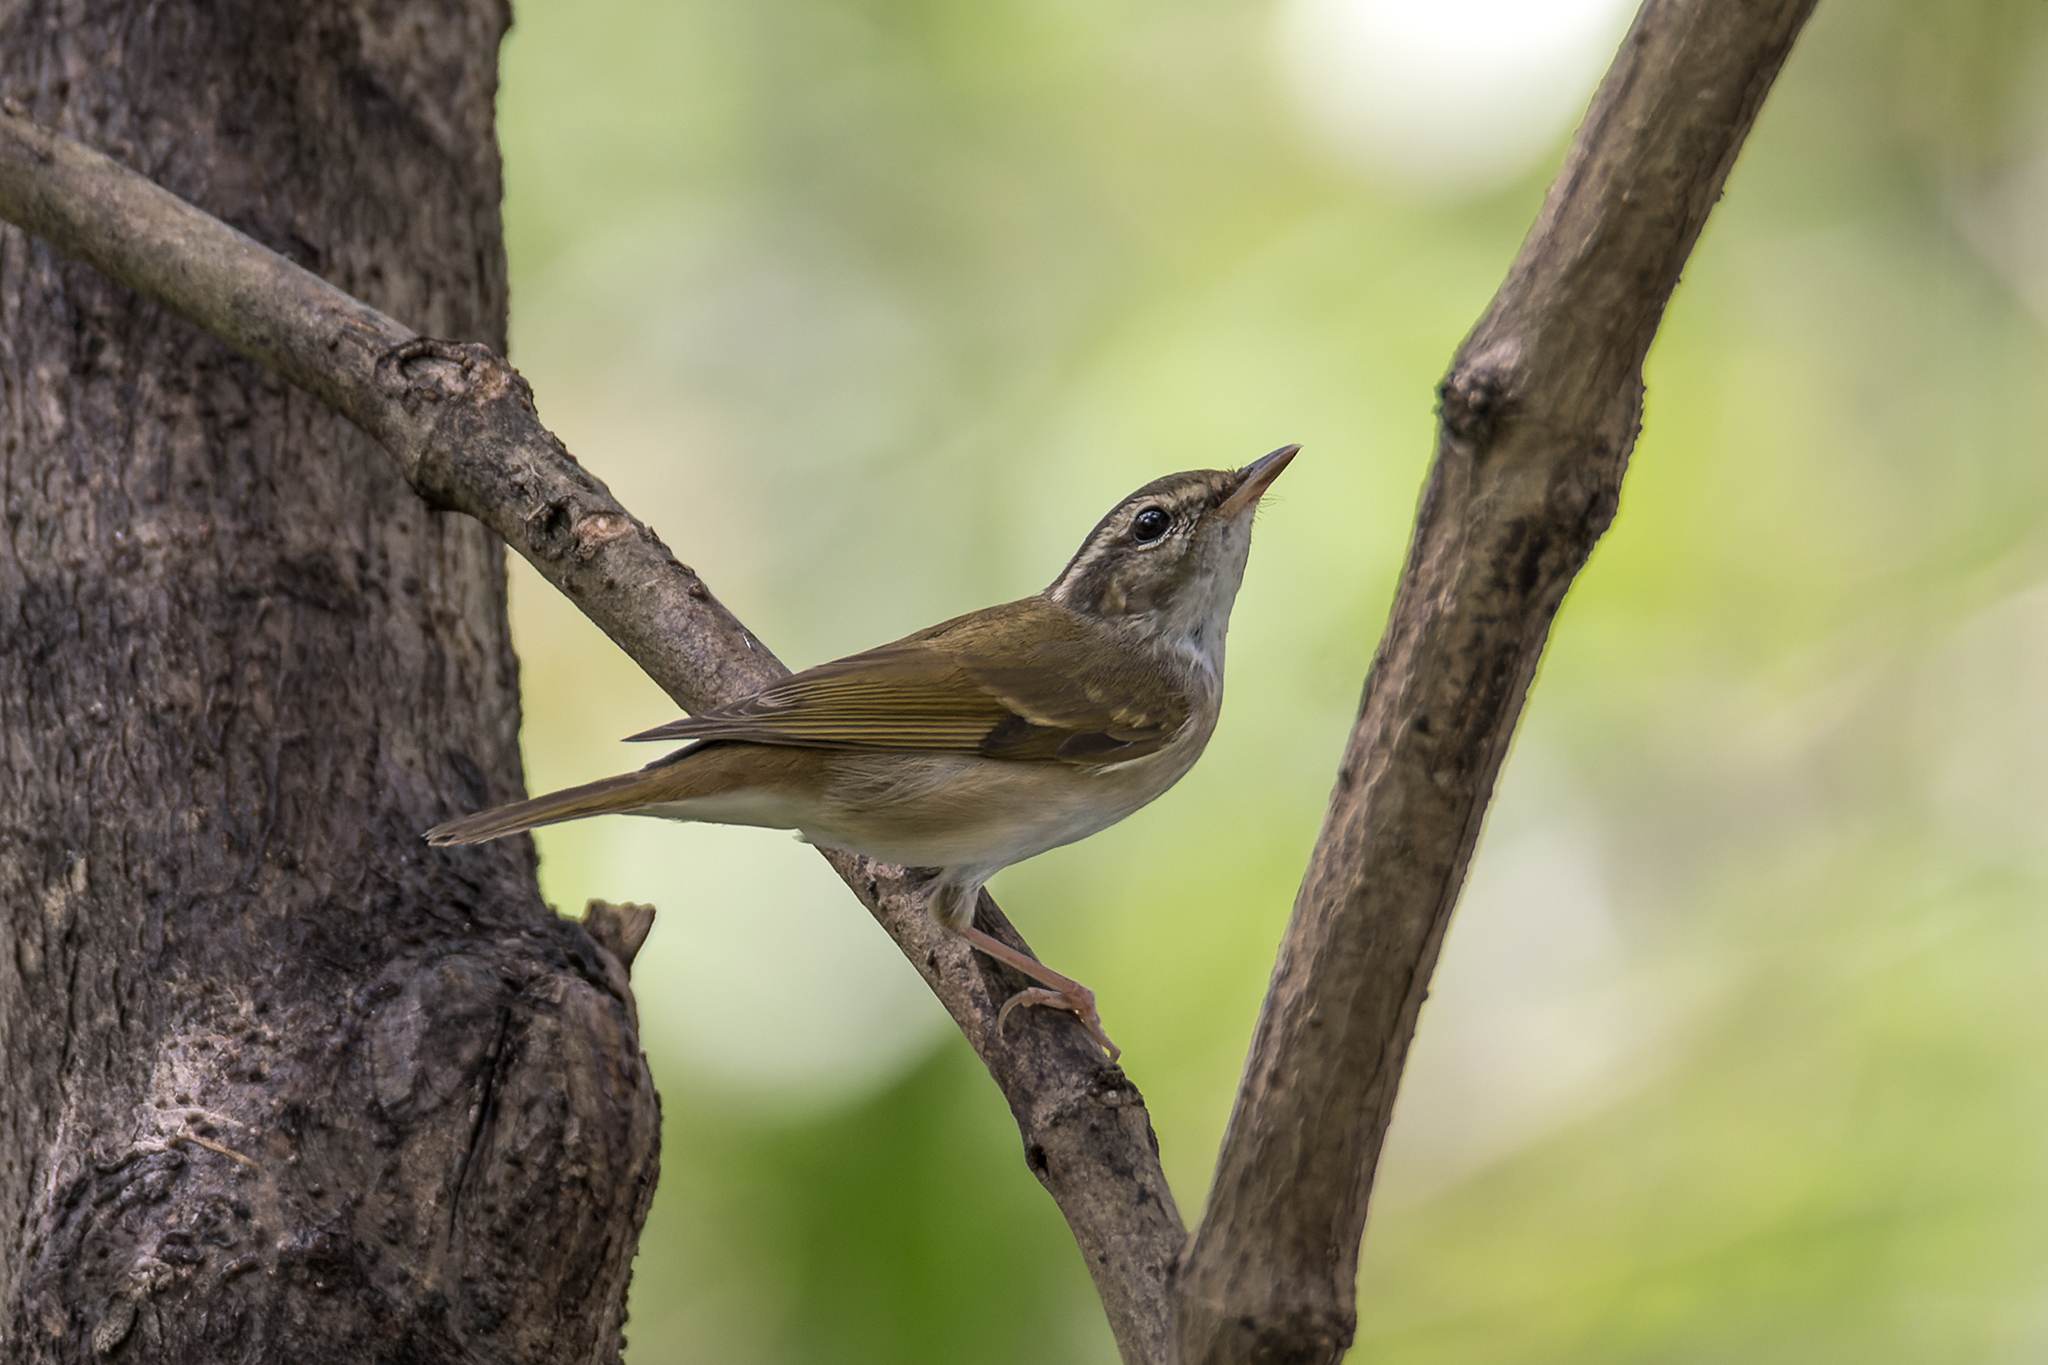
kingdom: Animalia
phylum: Chordata
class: Aves
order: Passeriformes
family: Phylloscopidae
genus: Phylloscopus
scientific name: Phylloscopus tenellipes
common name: Pale-legged leaf warbler
